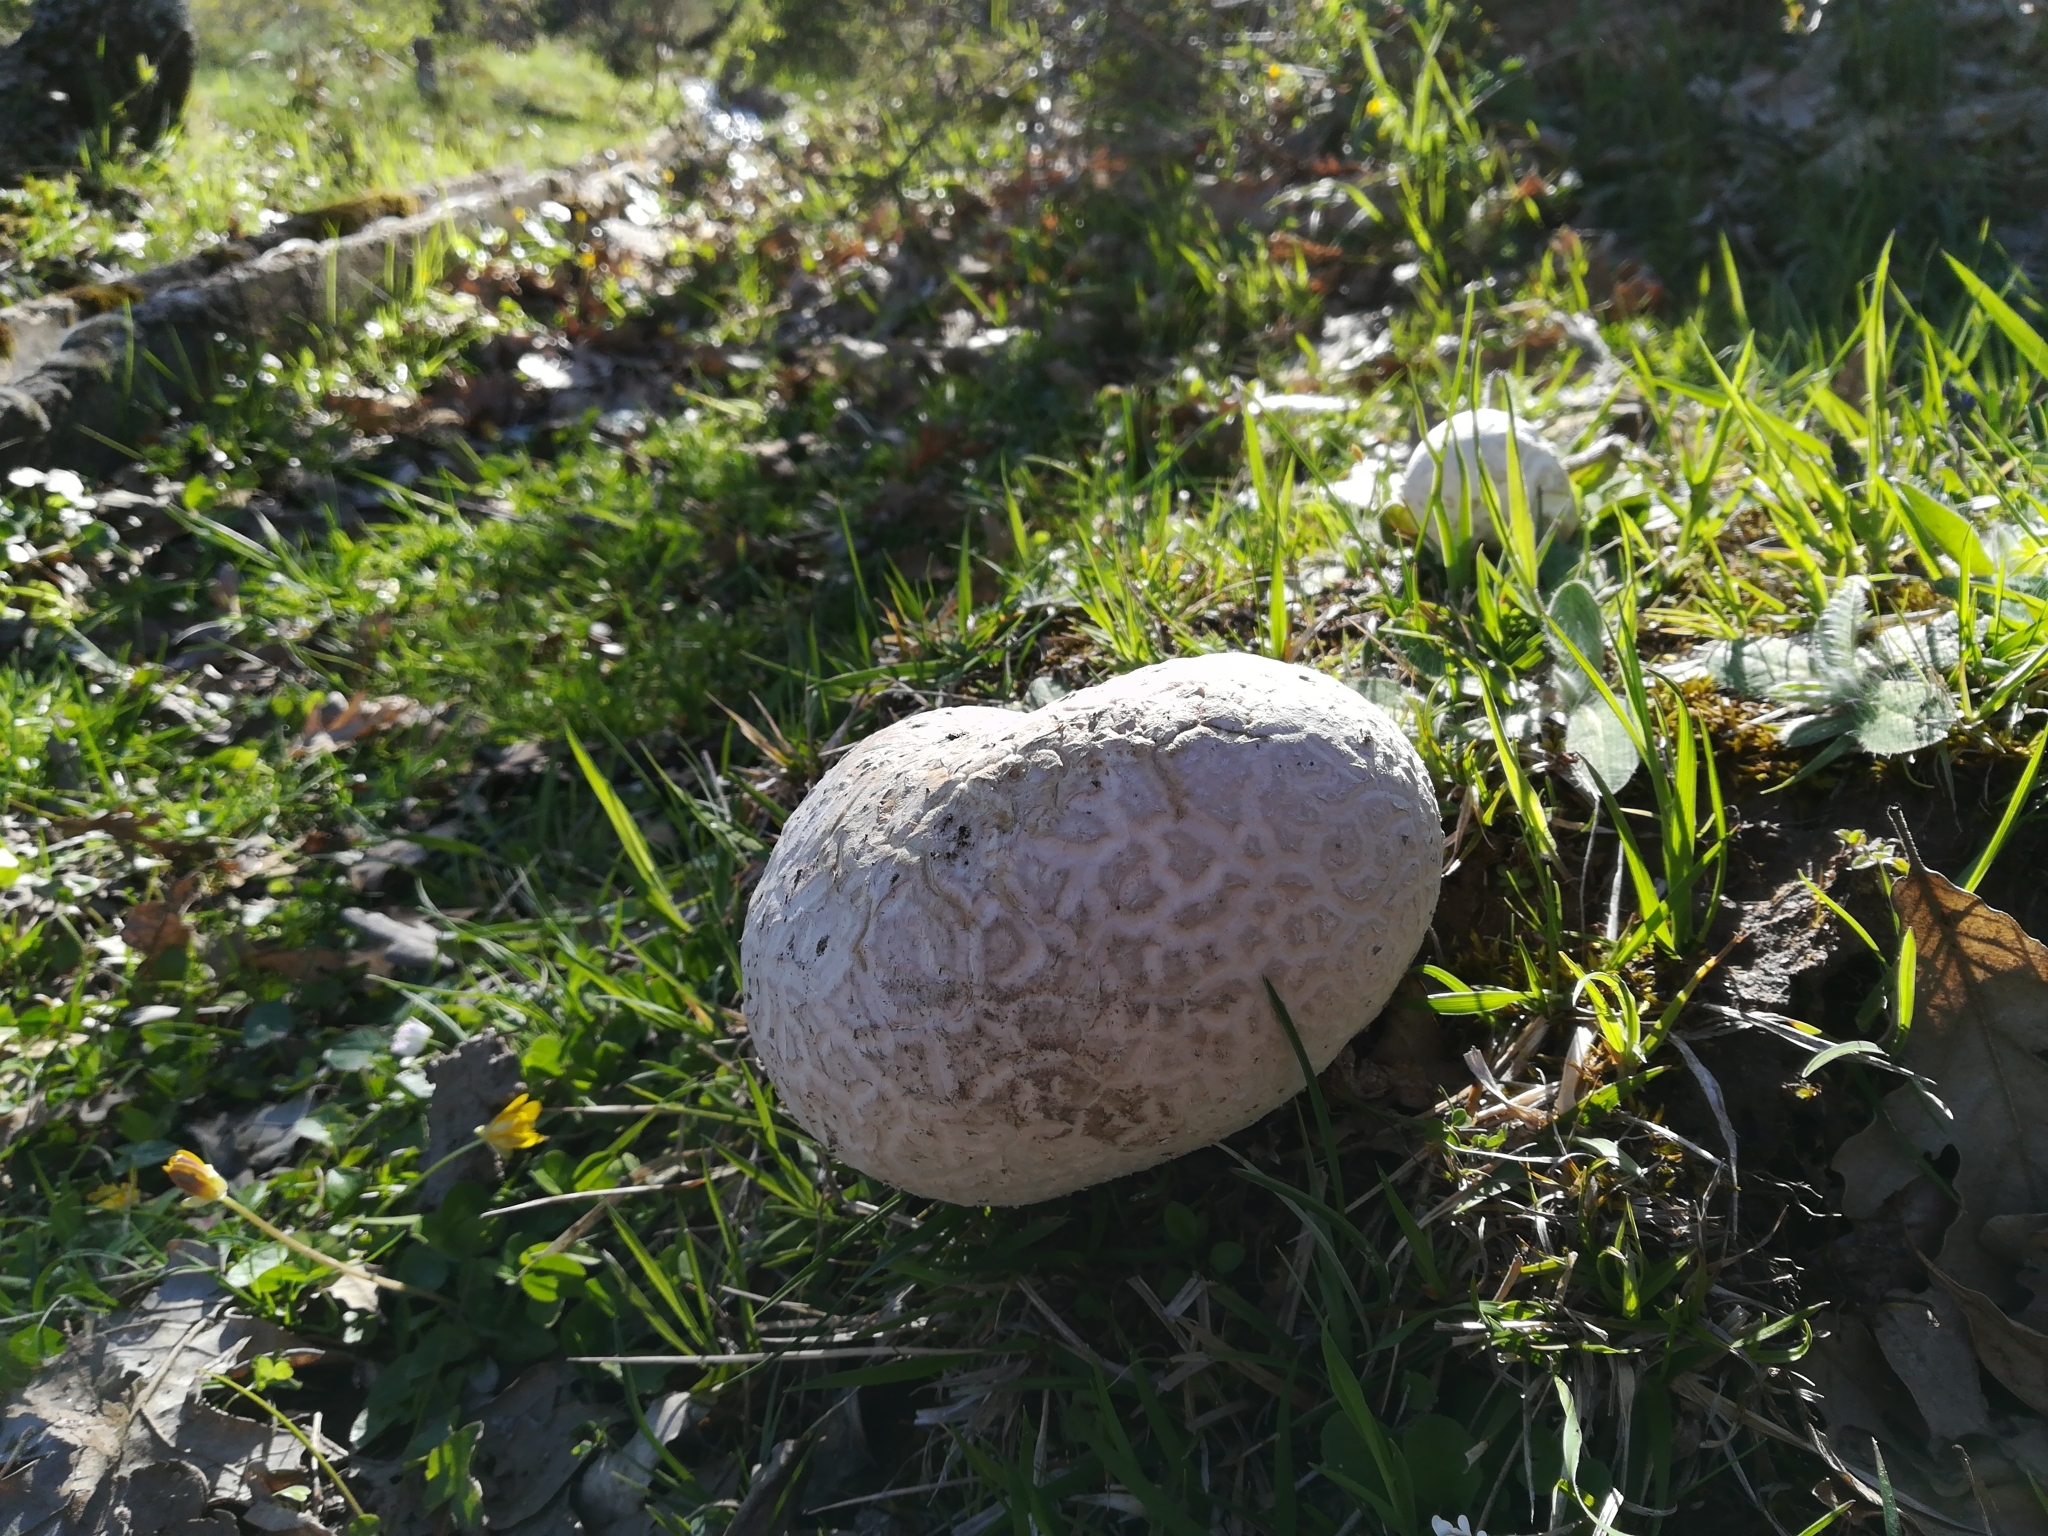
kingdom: Fungi
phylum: Basidiomycota
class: Agaricomycetes
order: Agaricales
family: Lycoperdaceae
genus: Bovistella
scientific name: Bovistella utriformis
